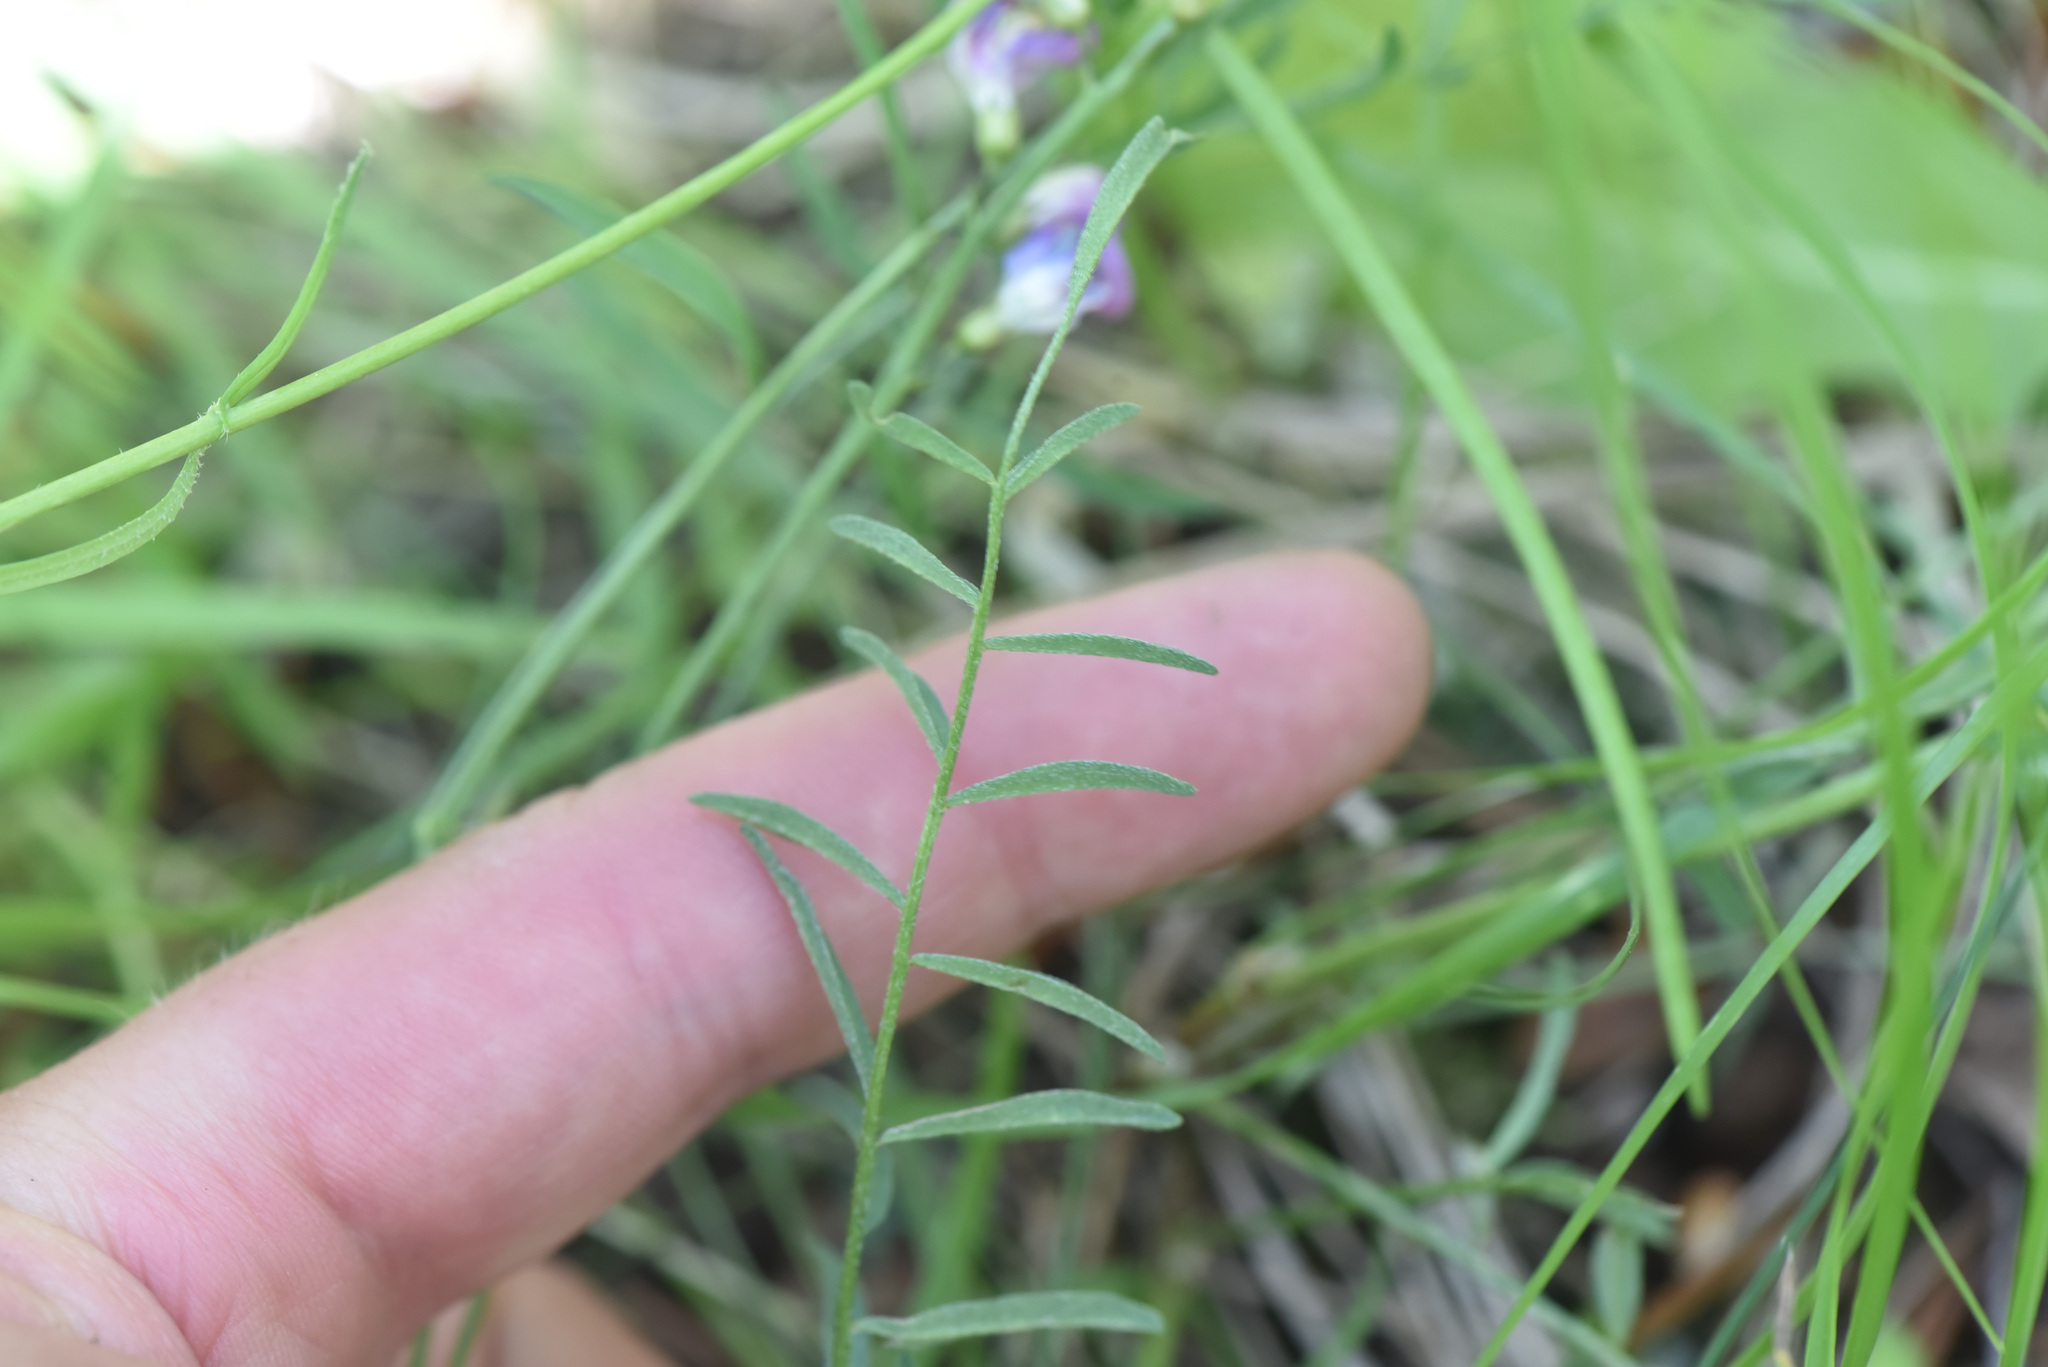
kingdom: Plantae
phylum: Tracheophyta
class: Magnoliopsida
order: Fabales
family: Fabaceae
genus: Astragalus
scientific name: Astragalus miser
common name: Timber milkvetch
